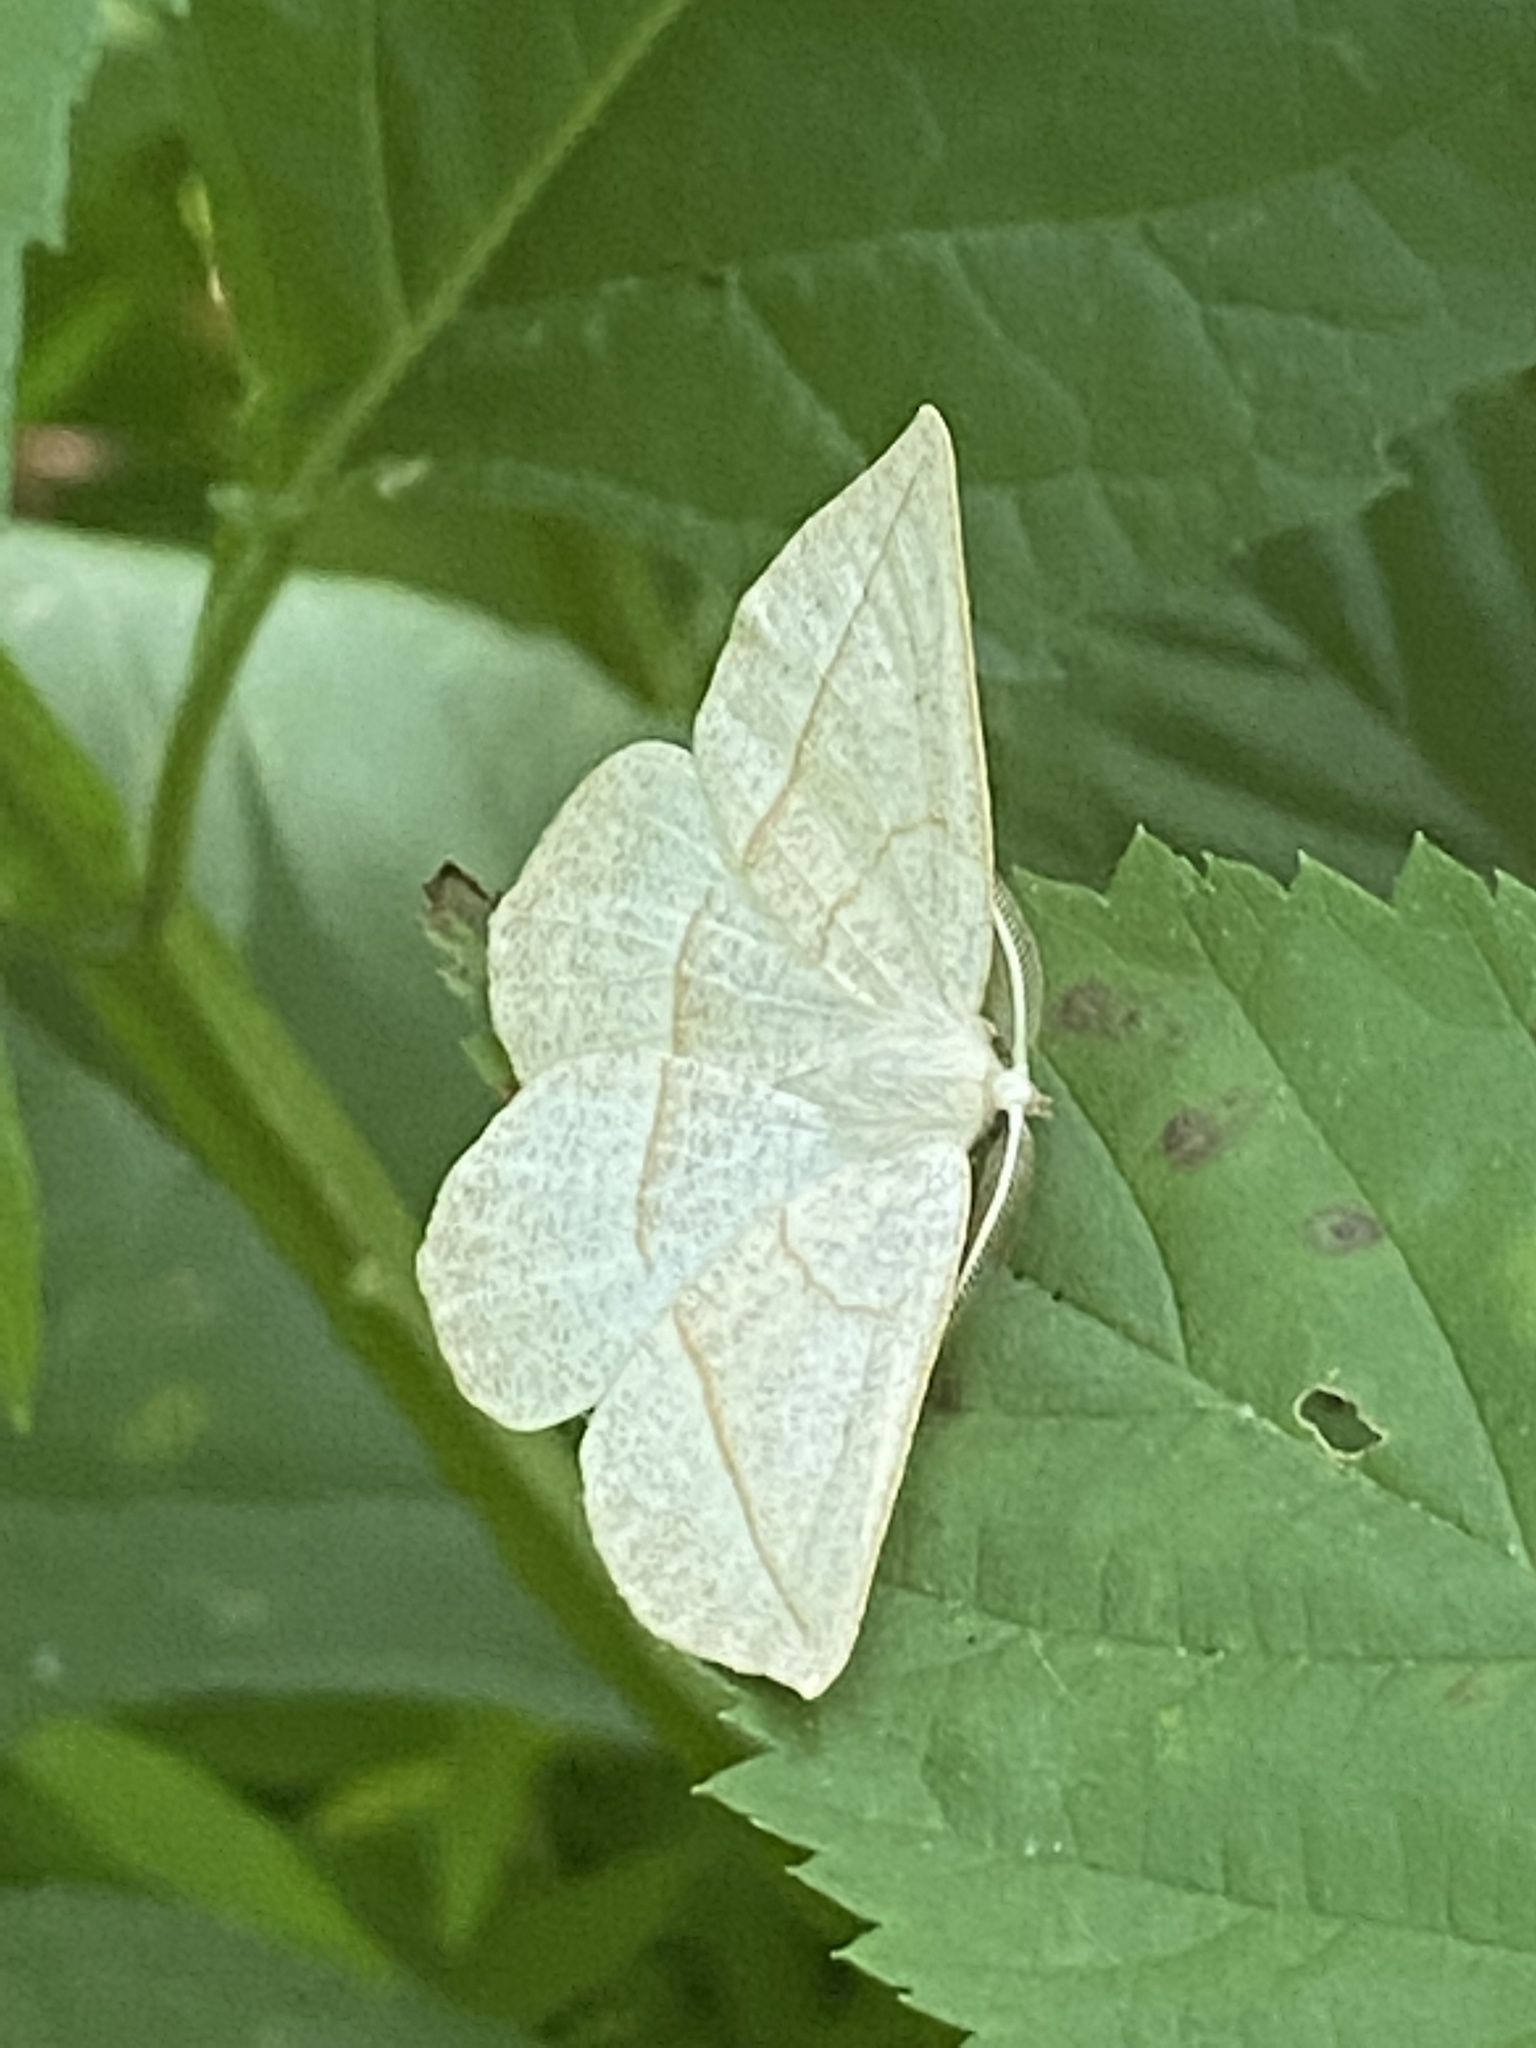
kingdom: Animalia
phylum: Arthropoda
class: Insecta
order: Lepidoptera
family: Geometridae
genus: Eusarca
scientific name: Eusarca confusaria
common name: Confused eusarca
